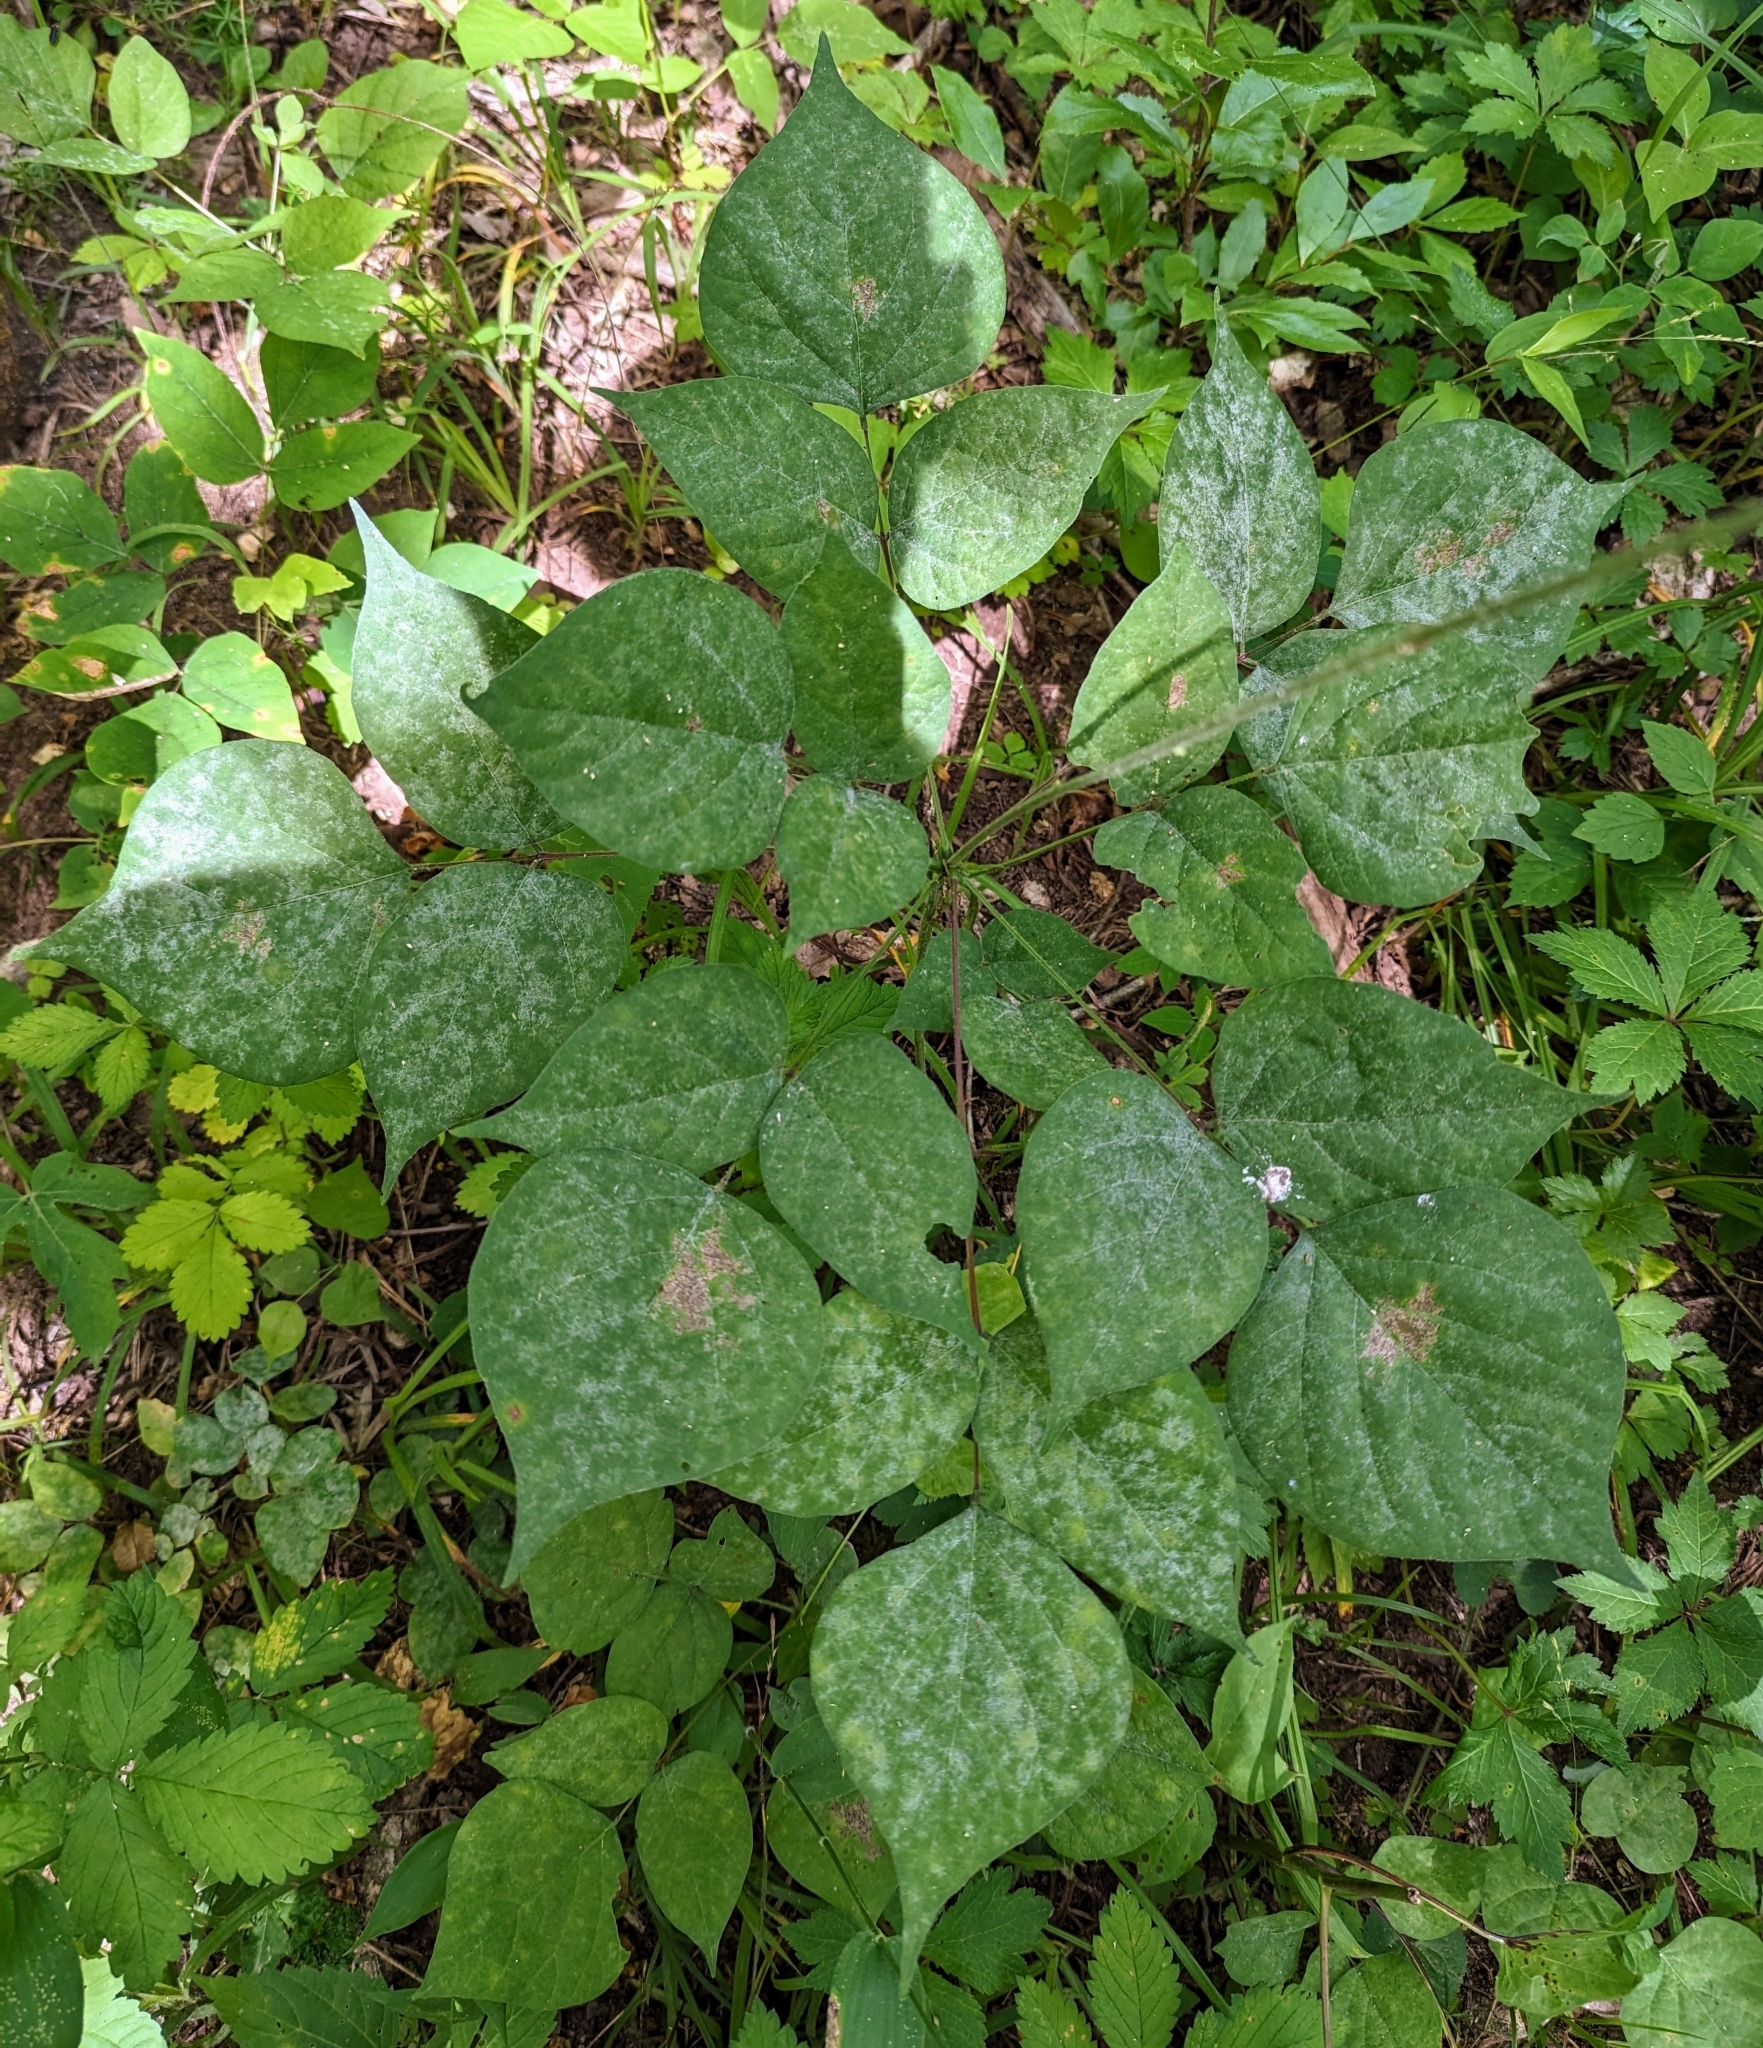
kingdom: Plantae
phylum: Tracheophyta
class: Magnoliopsida
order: Fabales
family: Fabaceae
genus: Hylodesmum
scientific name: Hylodesmum glutinosum
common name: Clustered-leaved tick-trefoil
